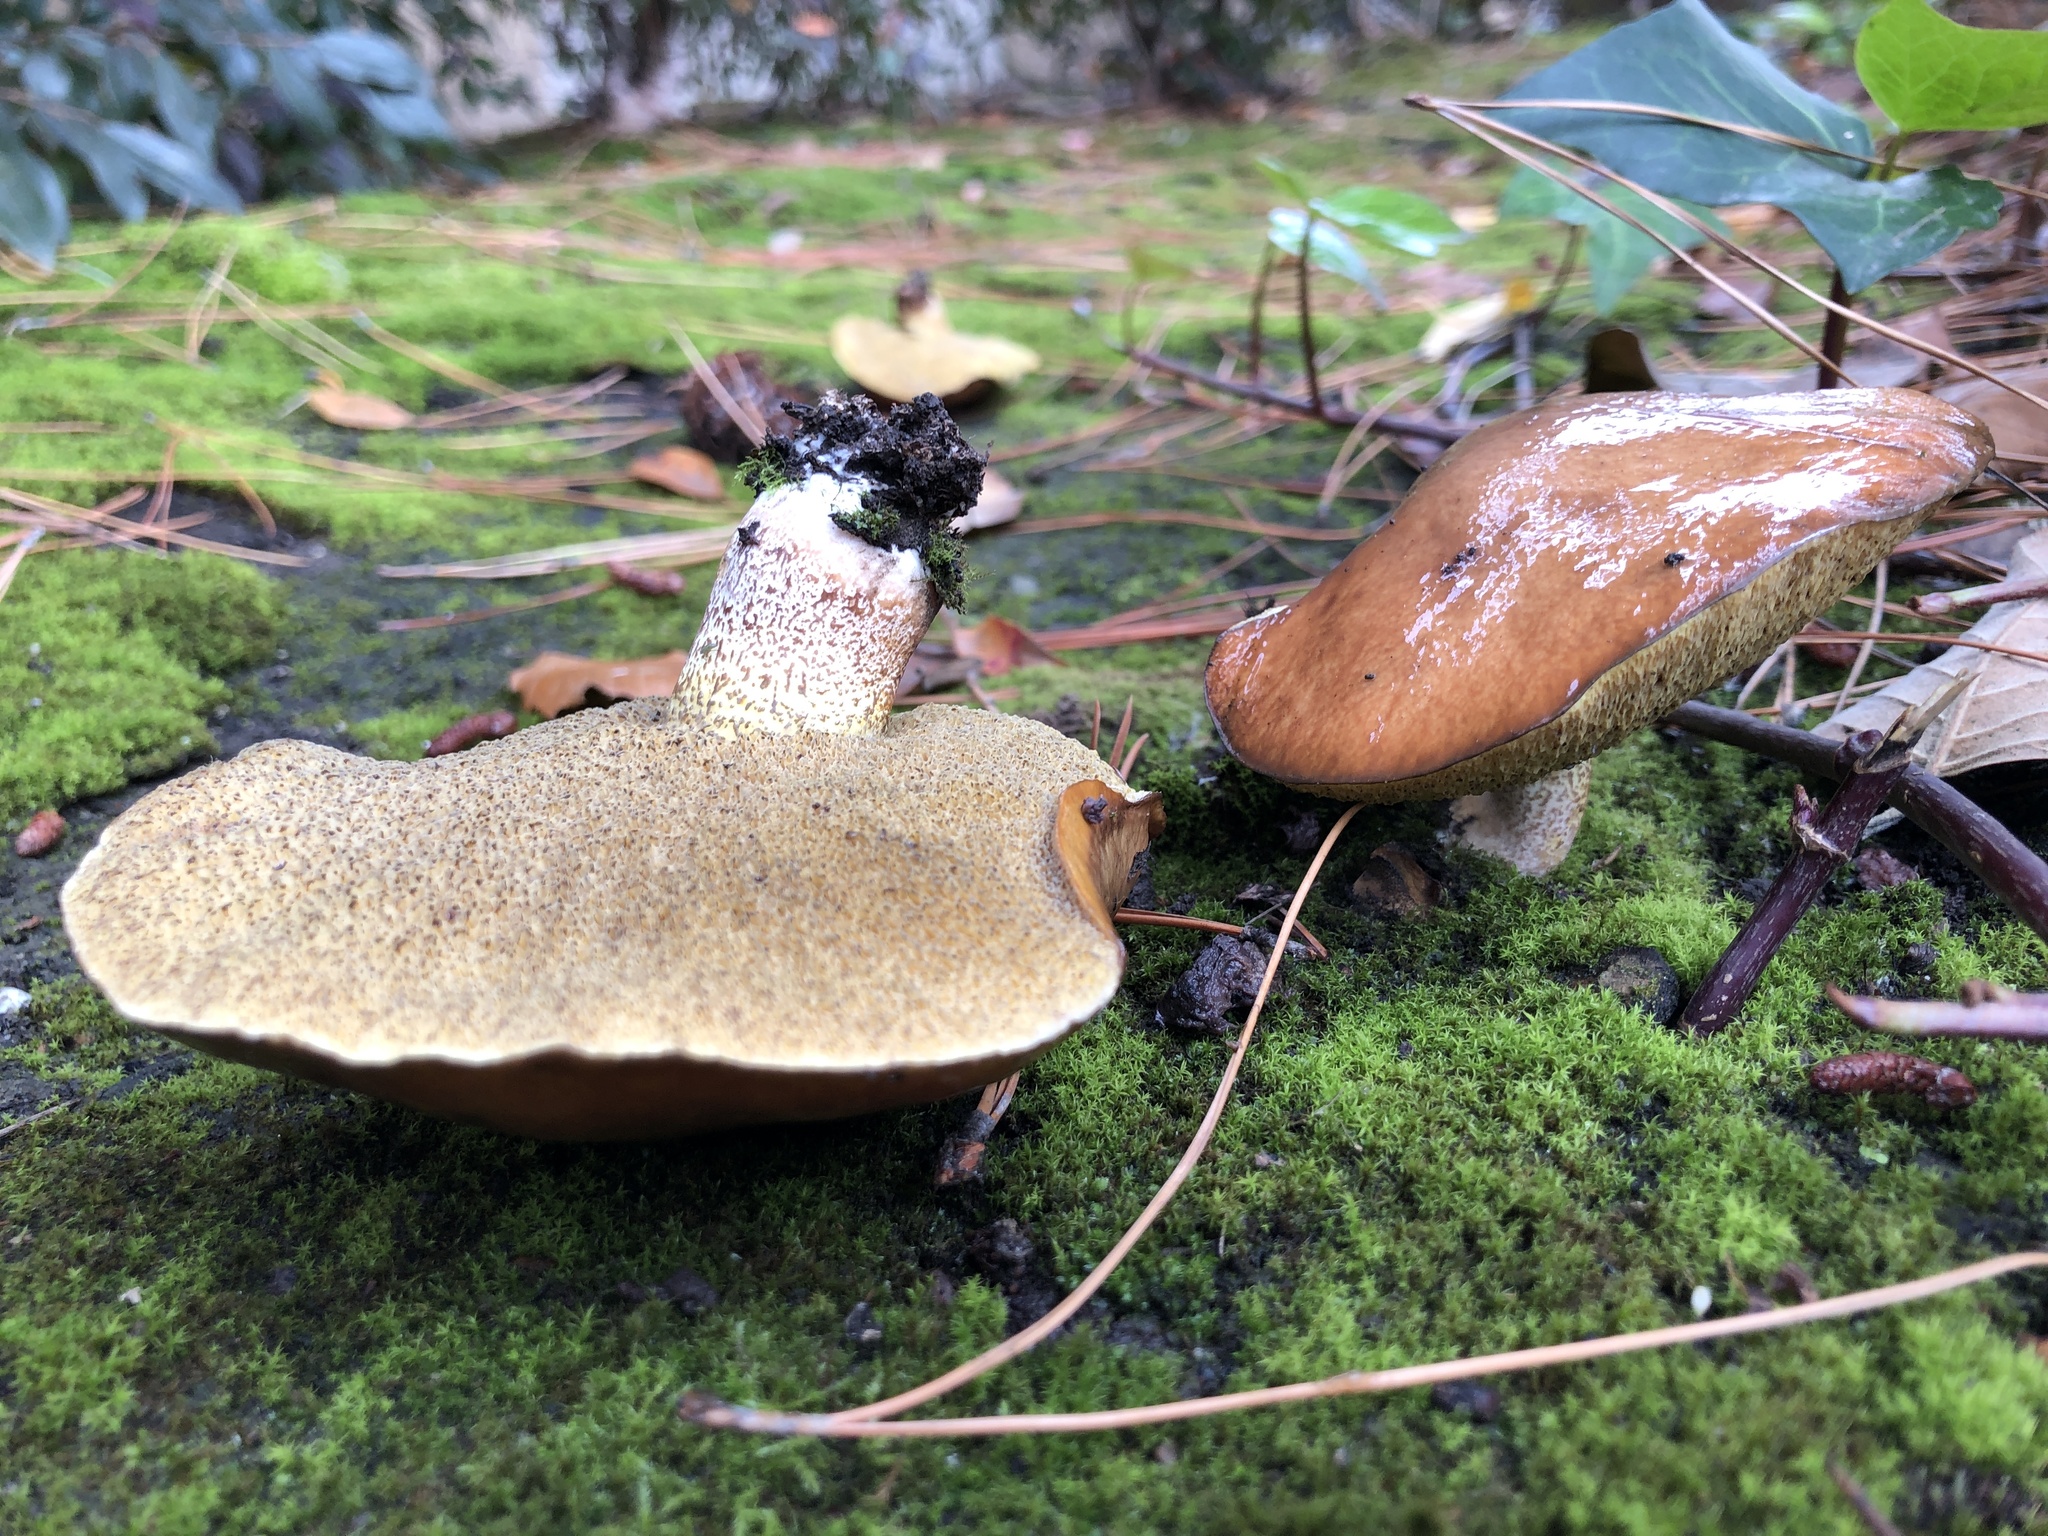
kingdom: Fungi
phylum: Basidiomycota
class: Agaricomycetes
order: Boletales
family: Suillaceae
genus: Suillus
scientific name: Suillus pungens
